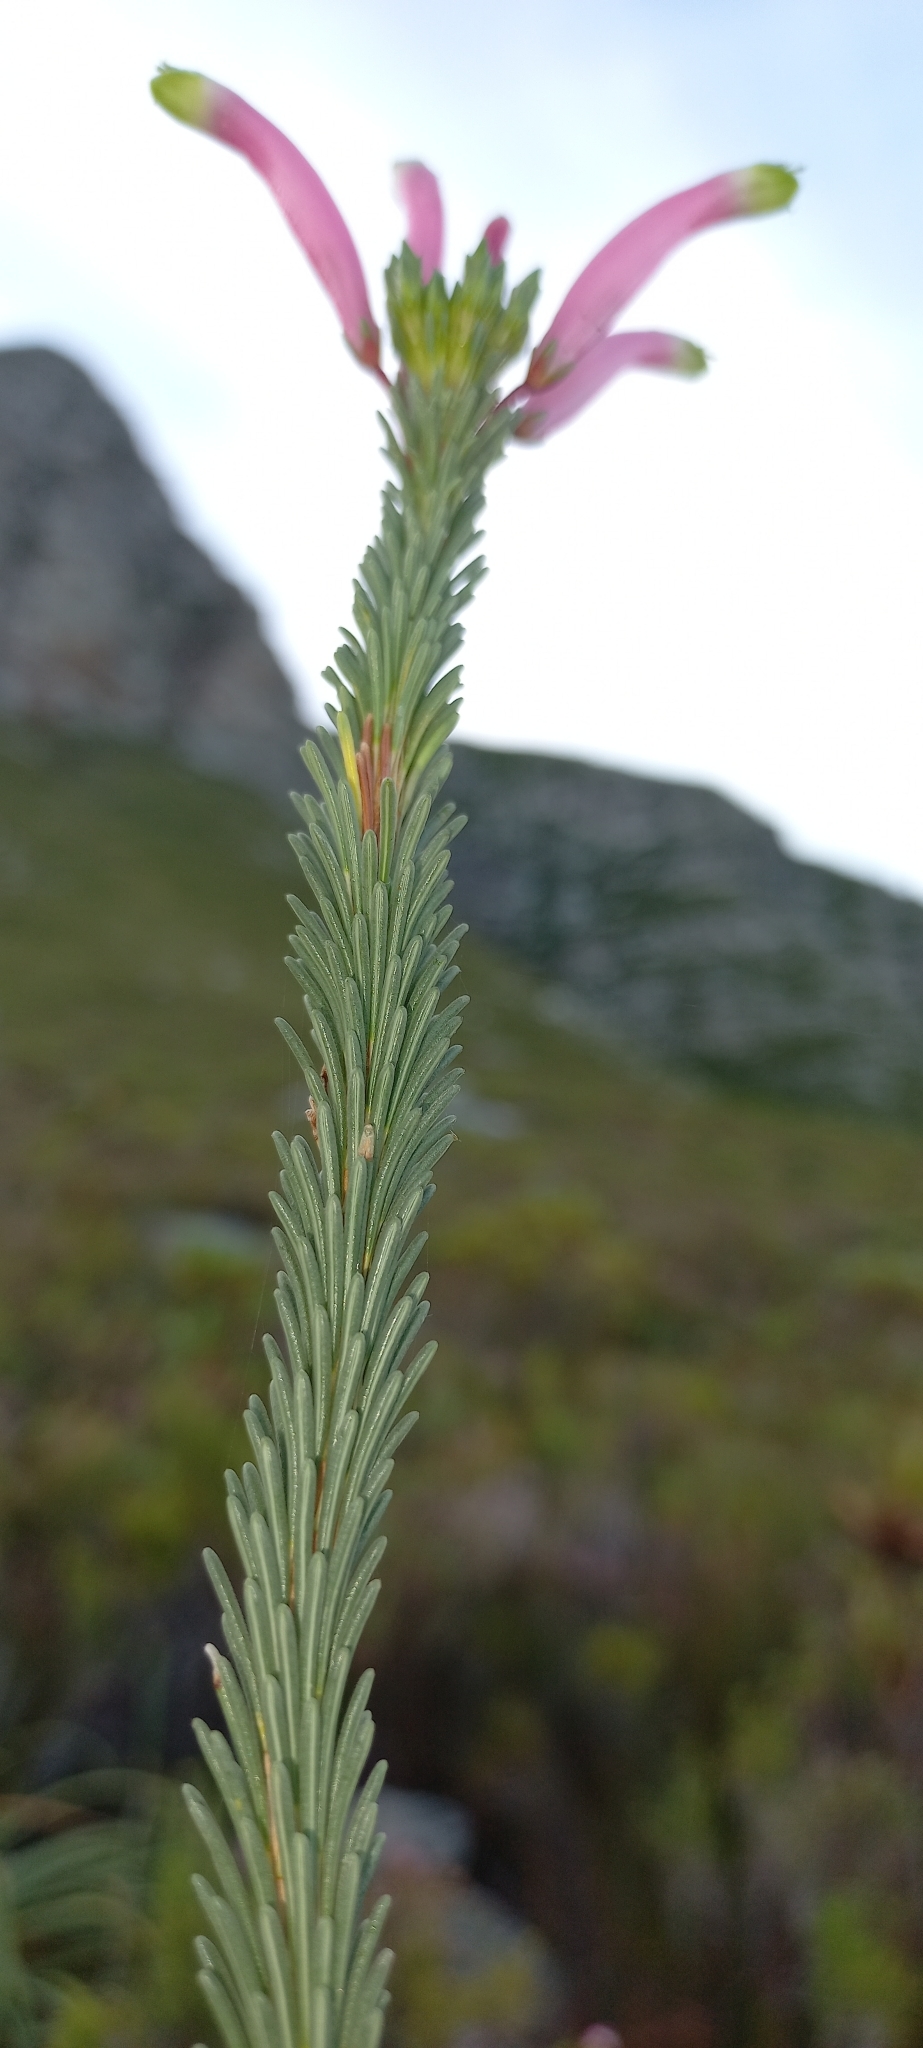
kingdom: Plantae
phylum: Tracheophyta
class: Magnoliopsida
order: Ericales
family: Ericaceae
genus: Erica
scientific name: Erica fascicularis
